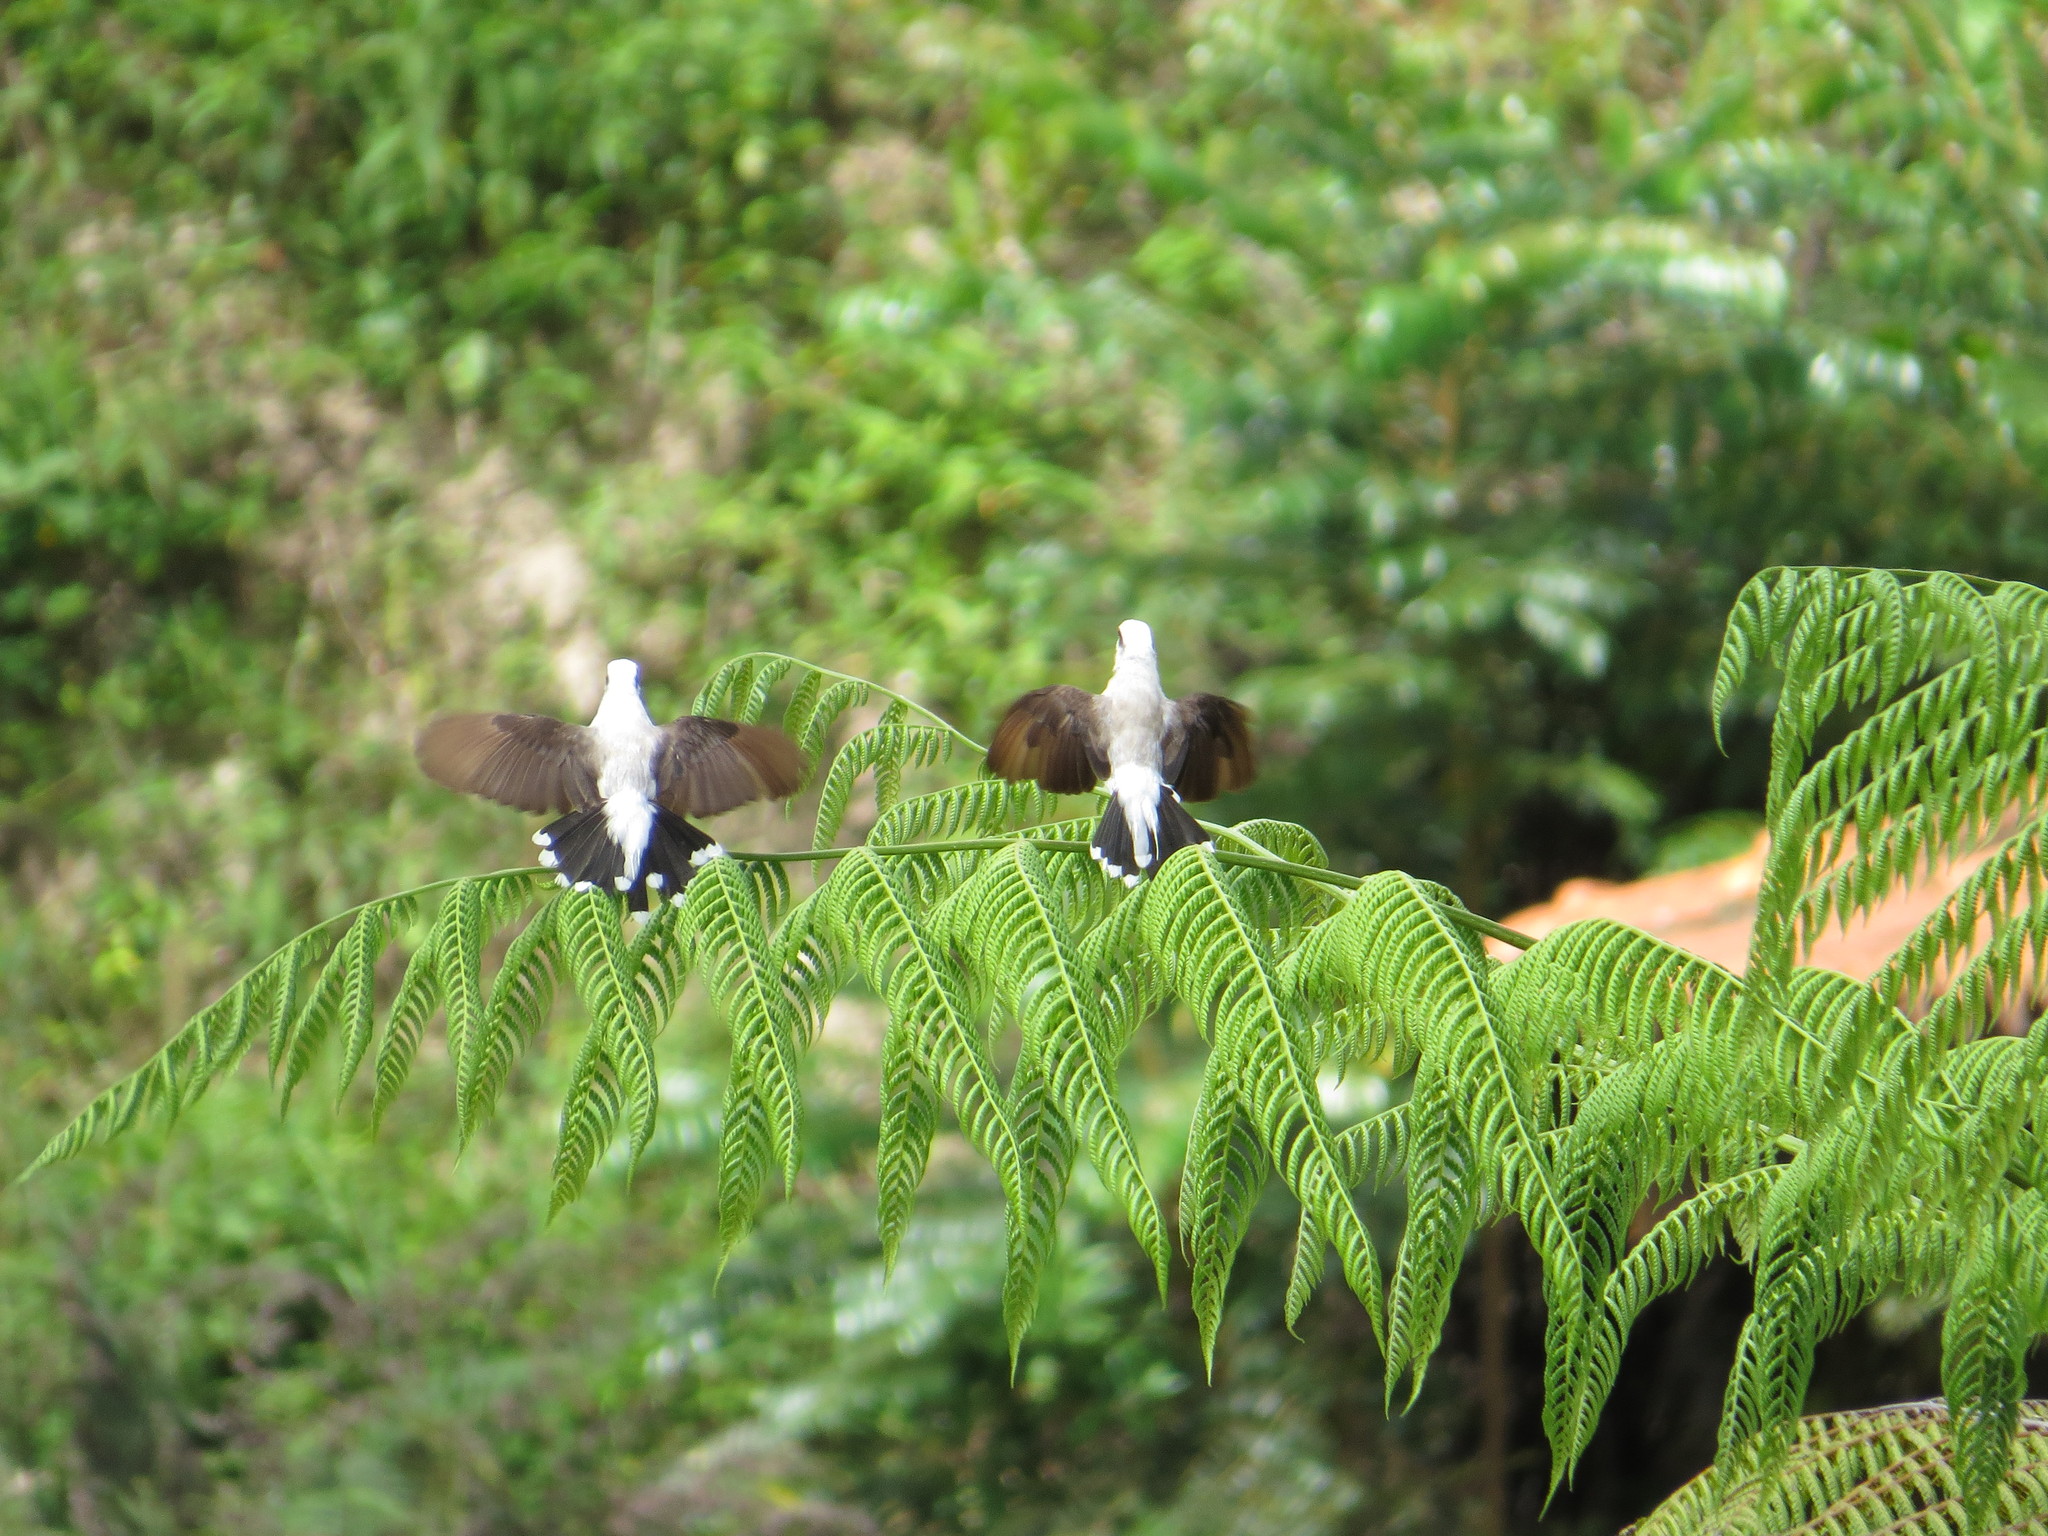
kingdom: Animalia
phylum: Chordata
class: Aves
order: Passeriformes
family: Tyrannidae
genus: Fluvicola
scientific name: Fluvicola nengeta
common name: Masked water tyrant
